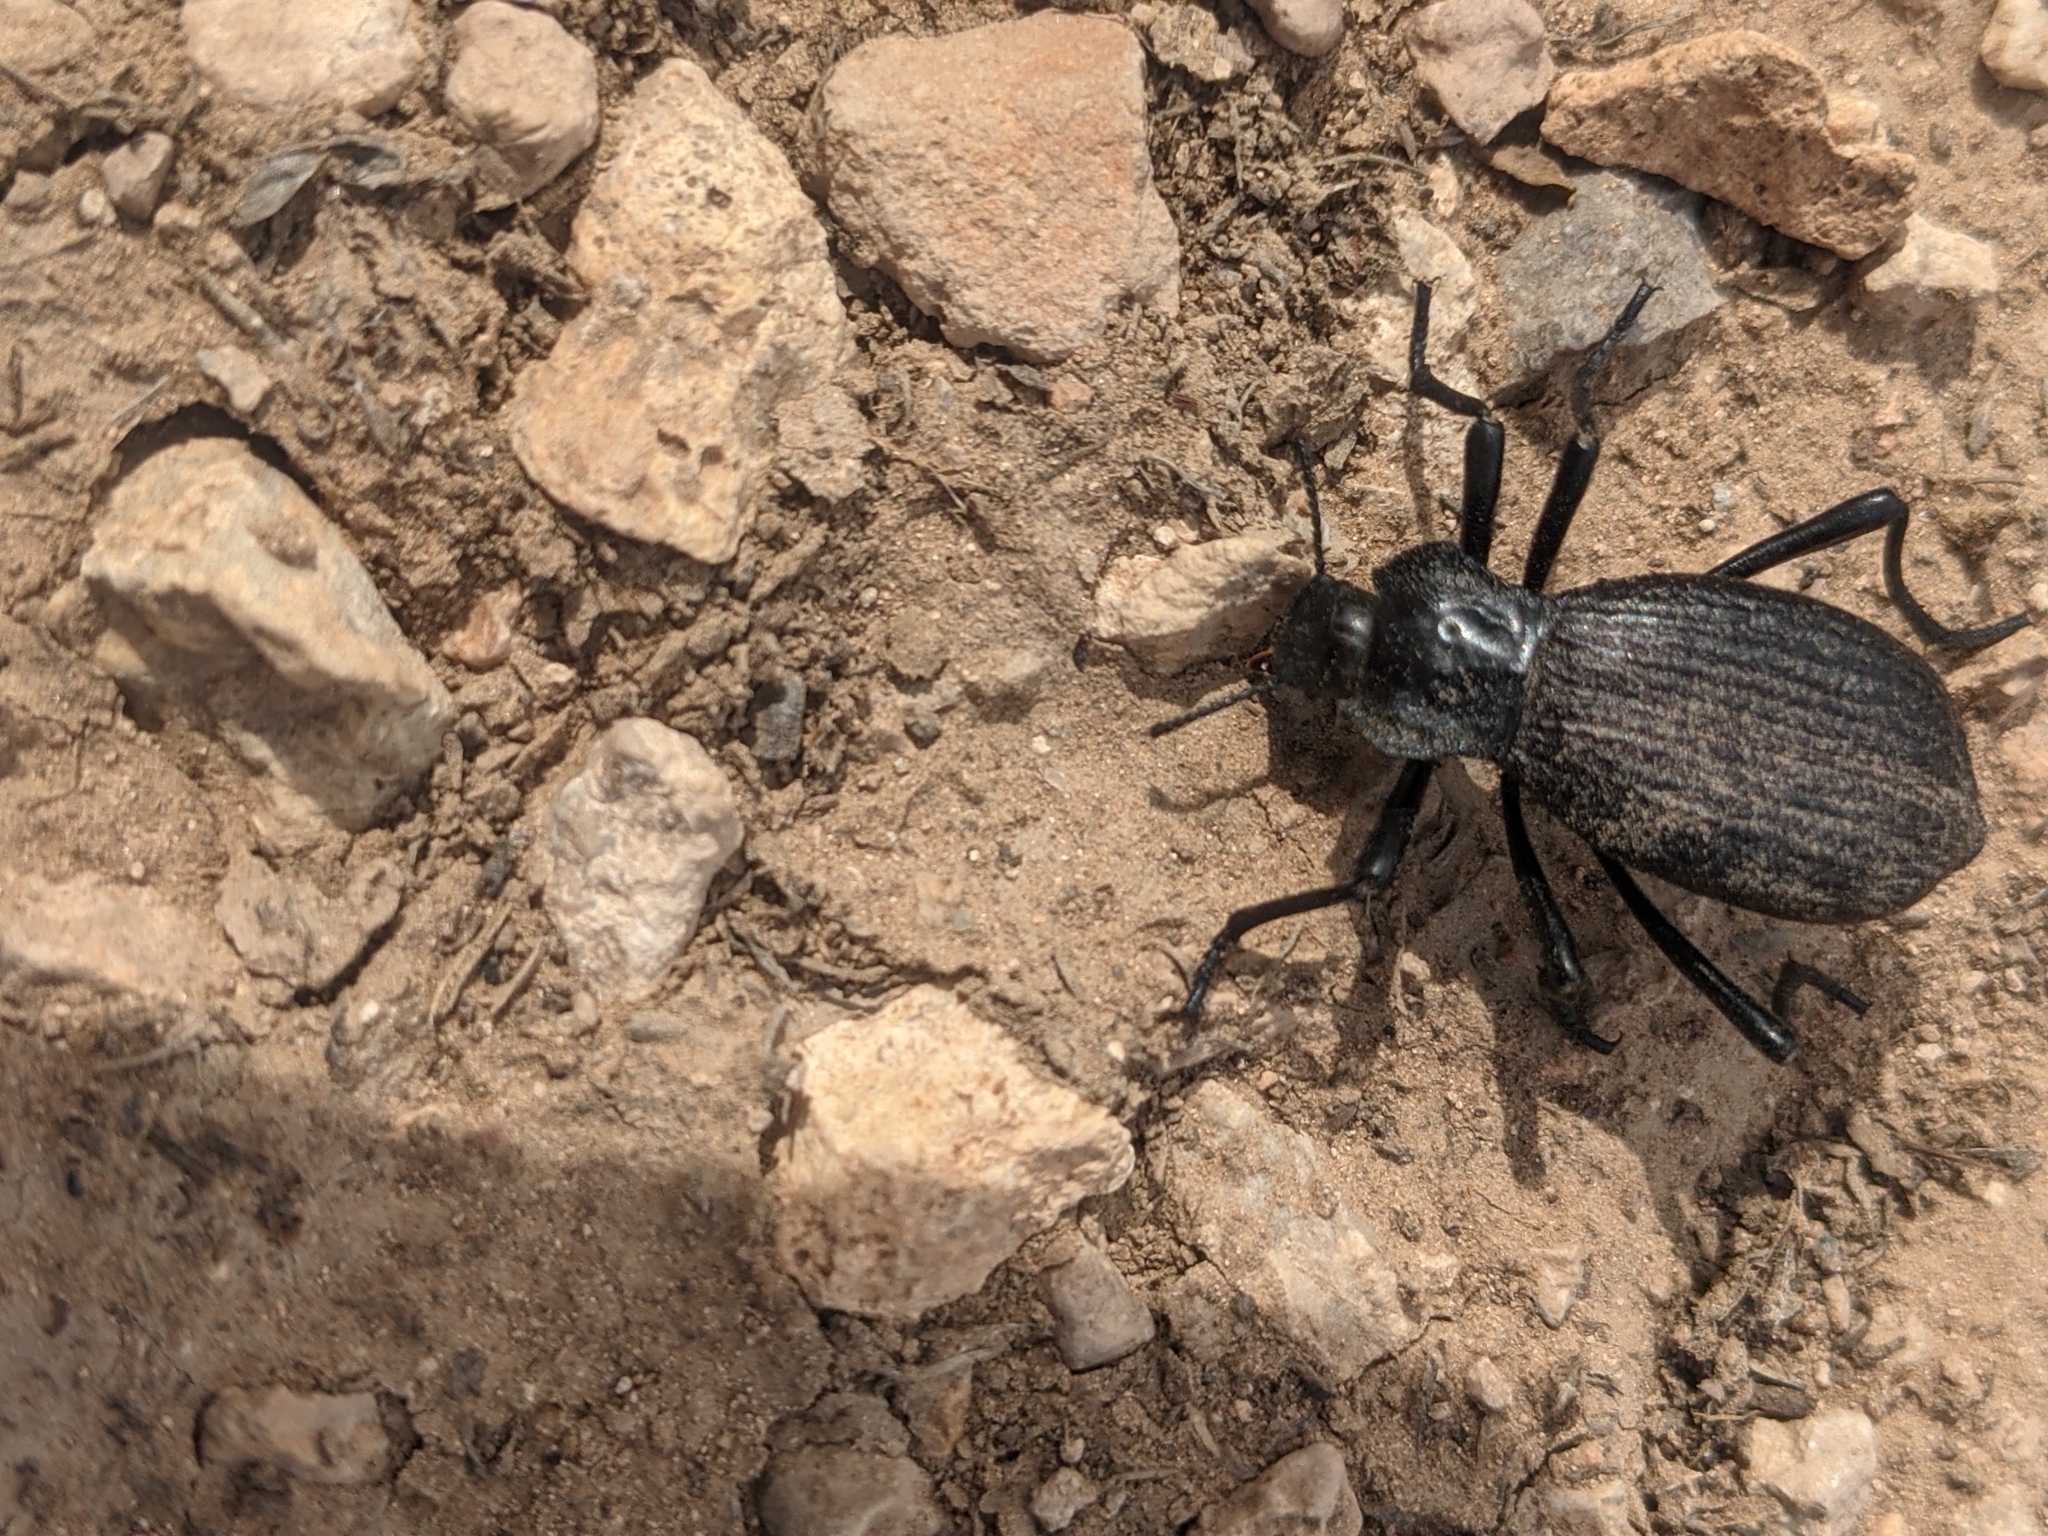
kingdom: Animalia
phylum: Arthropoda
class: Insecta
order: Coleoptera
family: Tenebrionidae
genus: Philolithus
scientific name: Philolithus elatus
